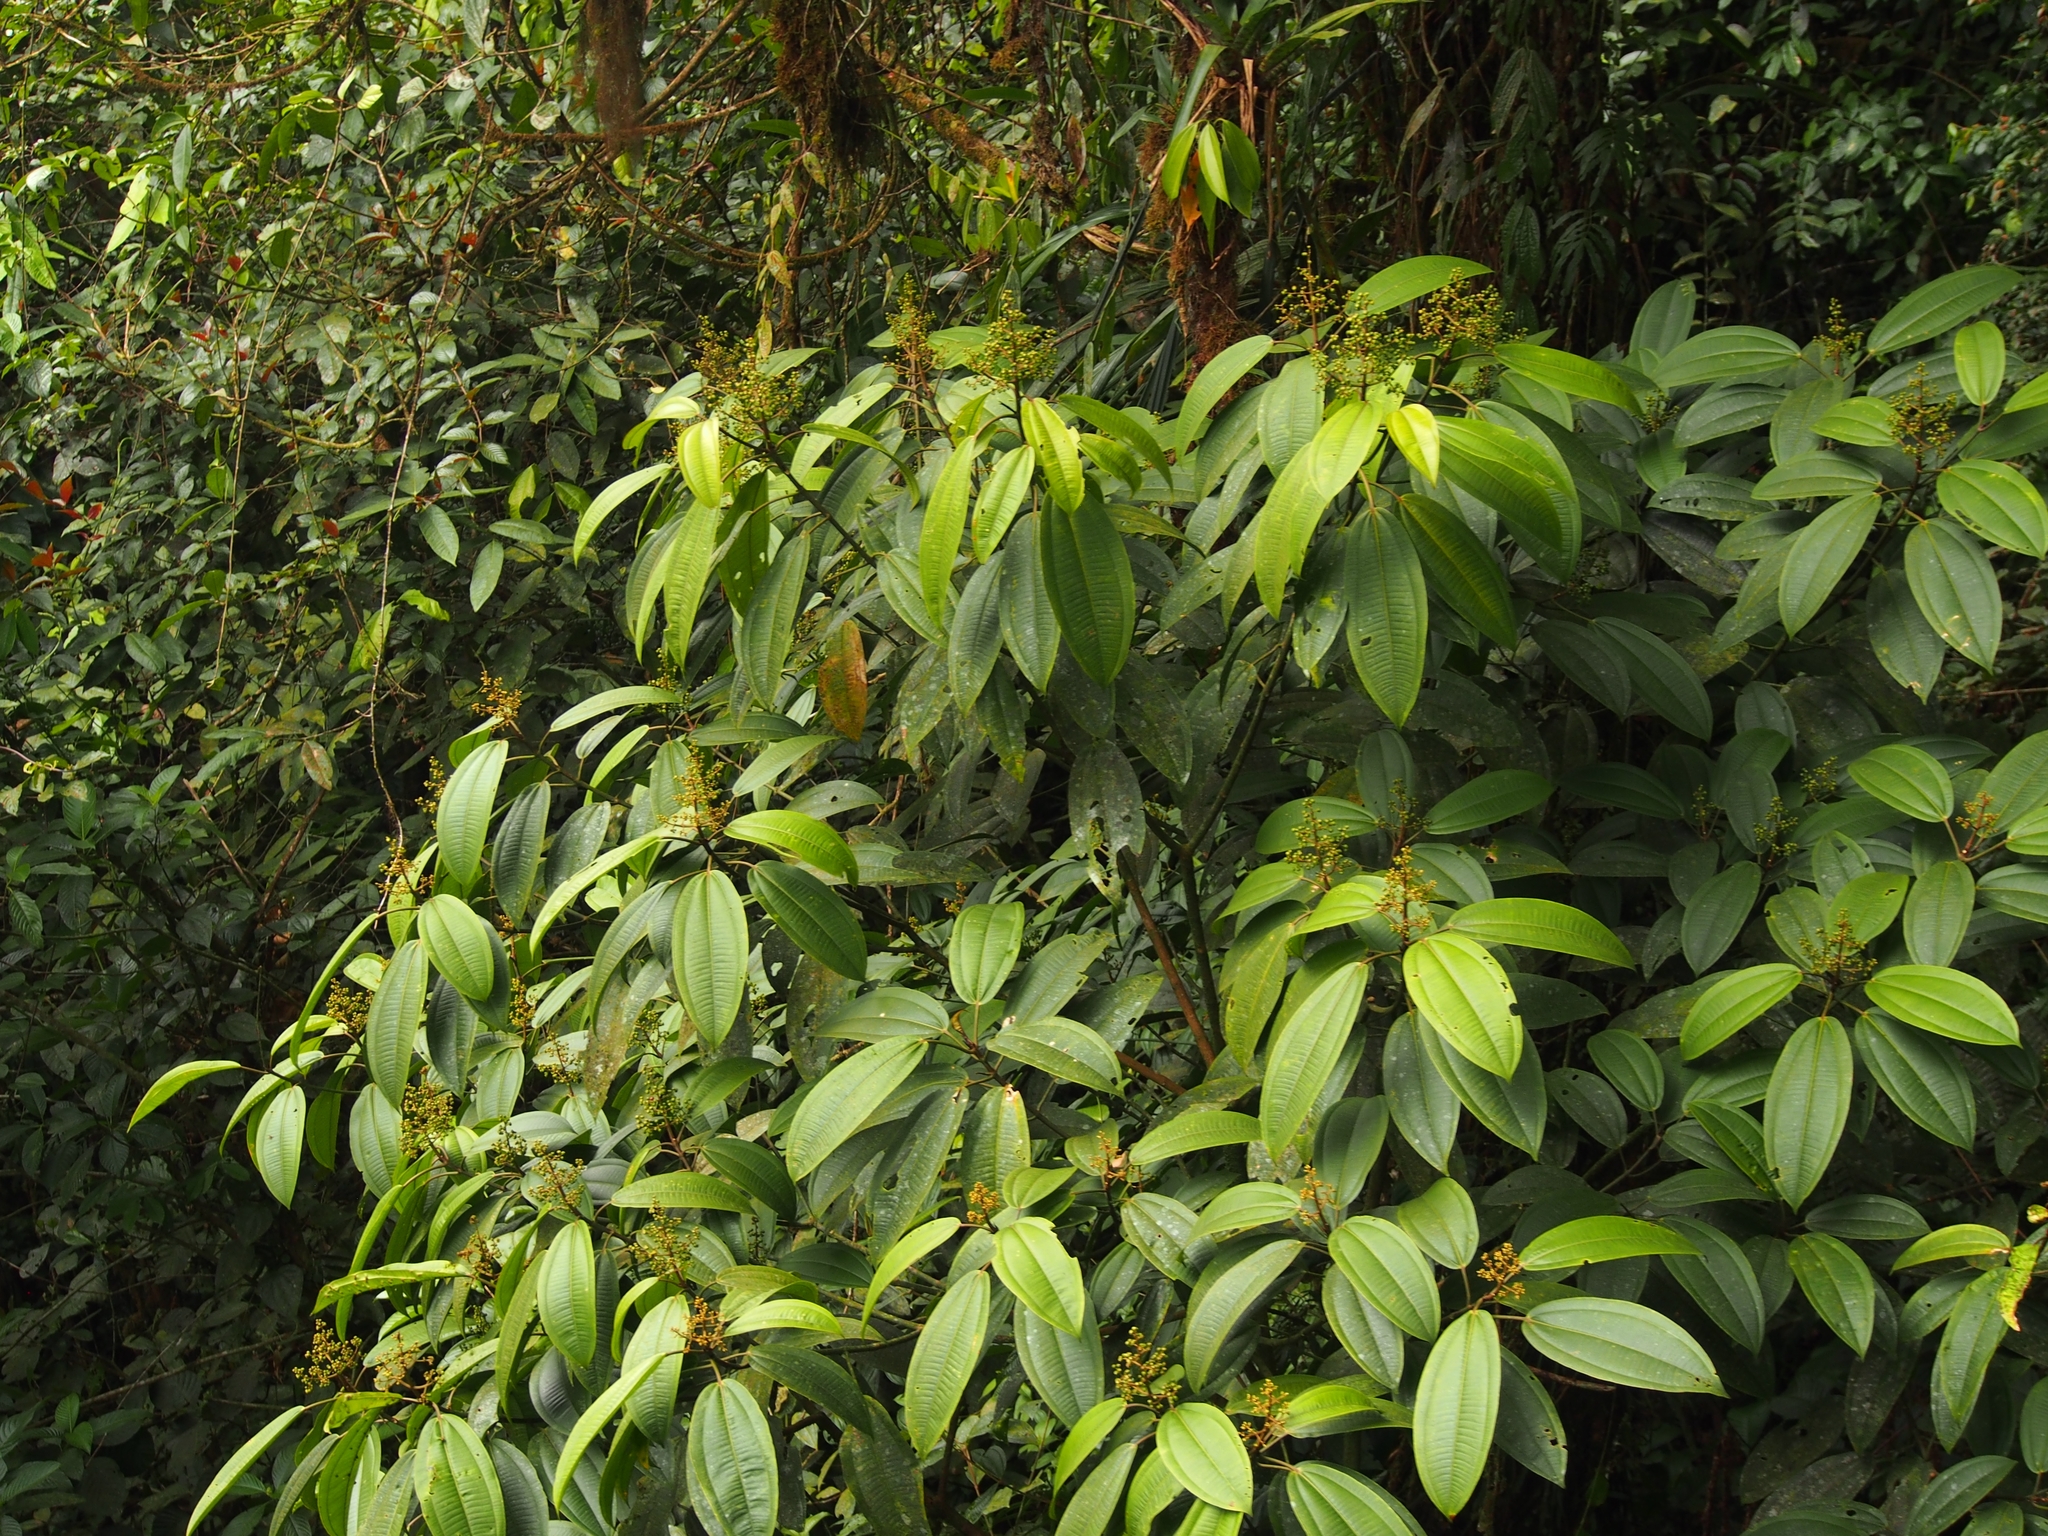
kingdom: Plantae
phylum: Tracheophyta
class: Magnoliopsida
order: Myrtales
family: Melastomataceae
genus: Miconia
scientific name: Miconia commutata
